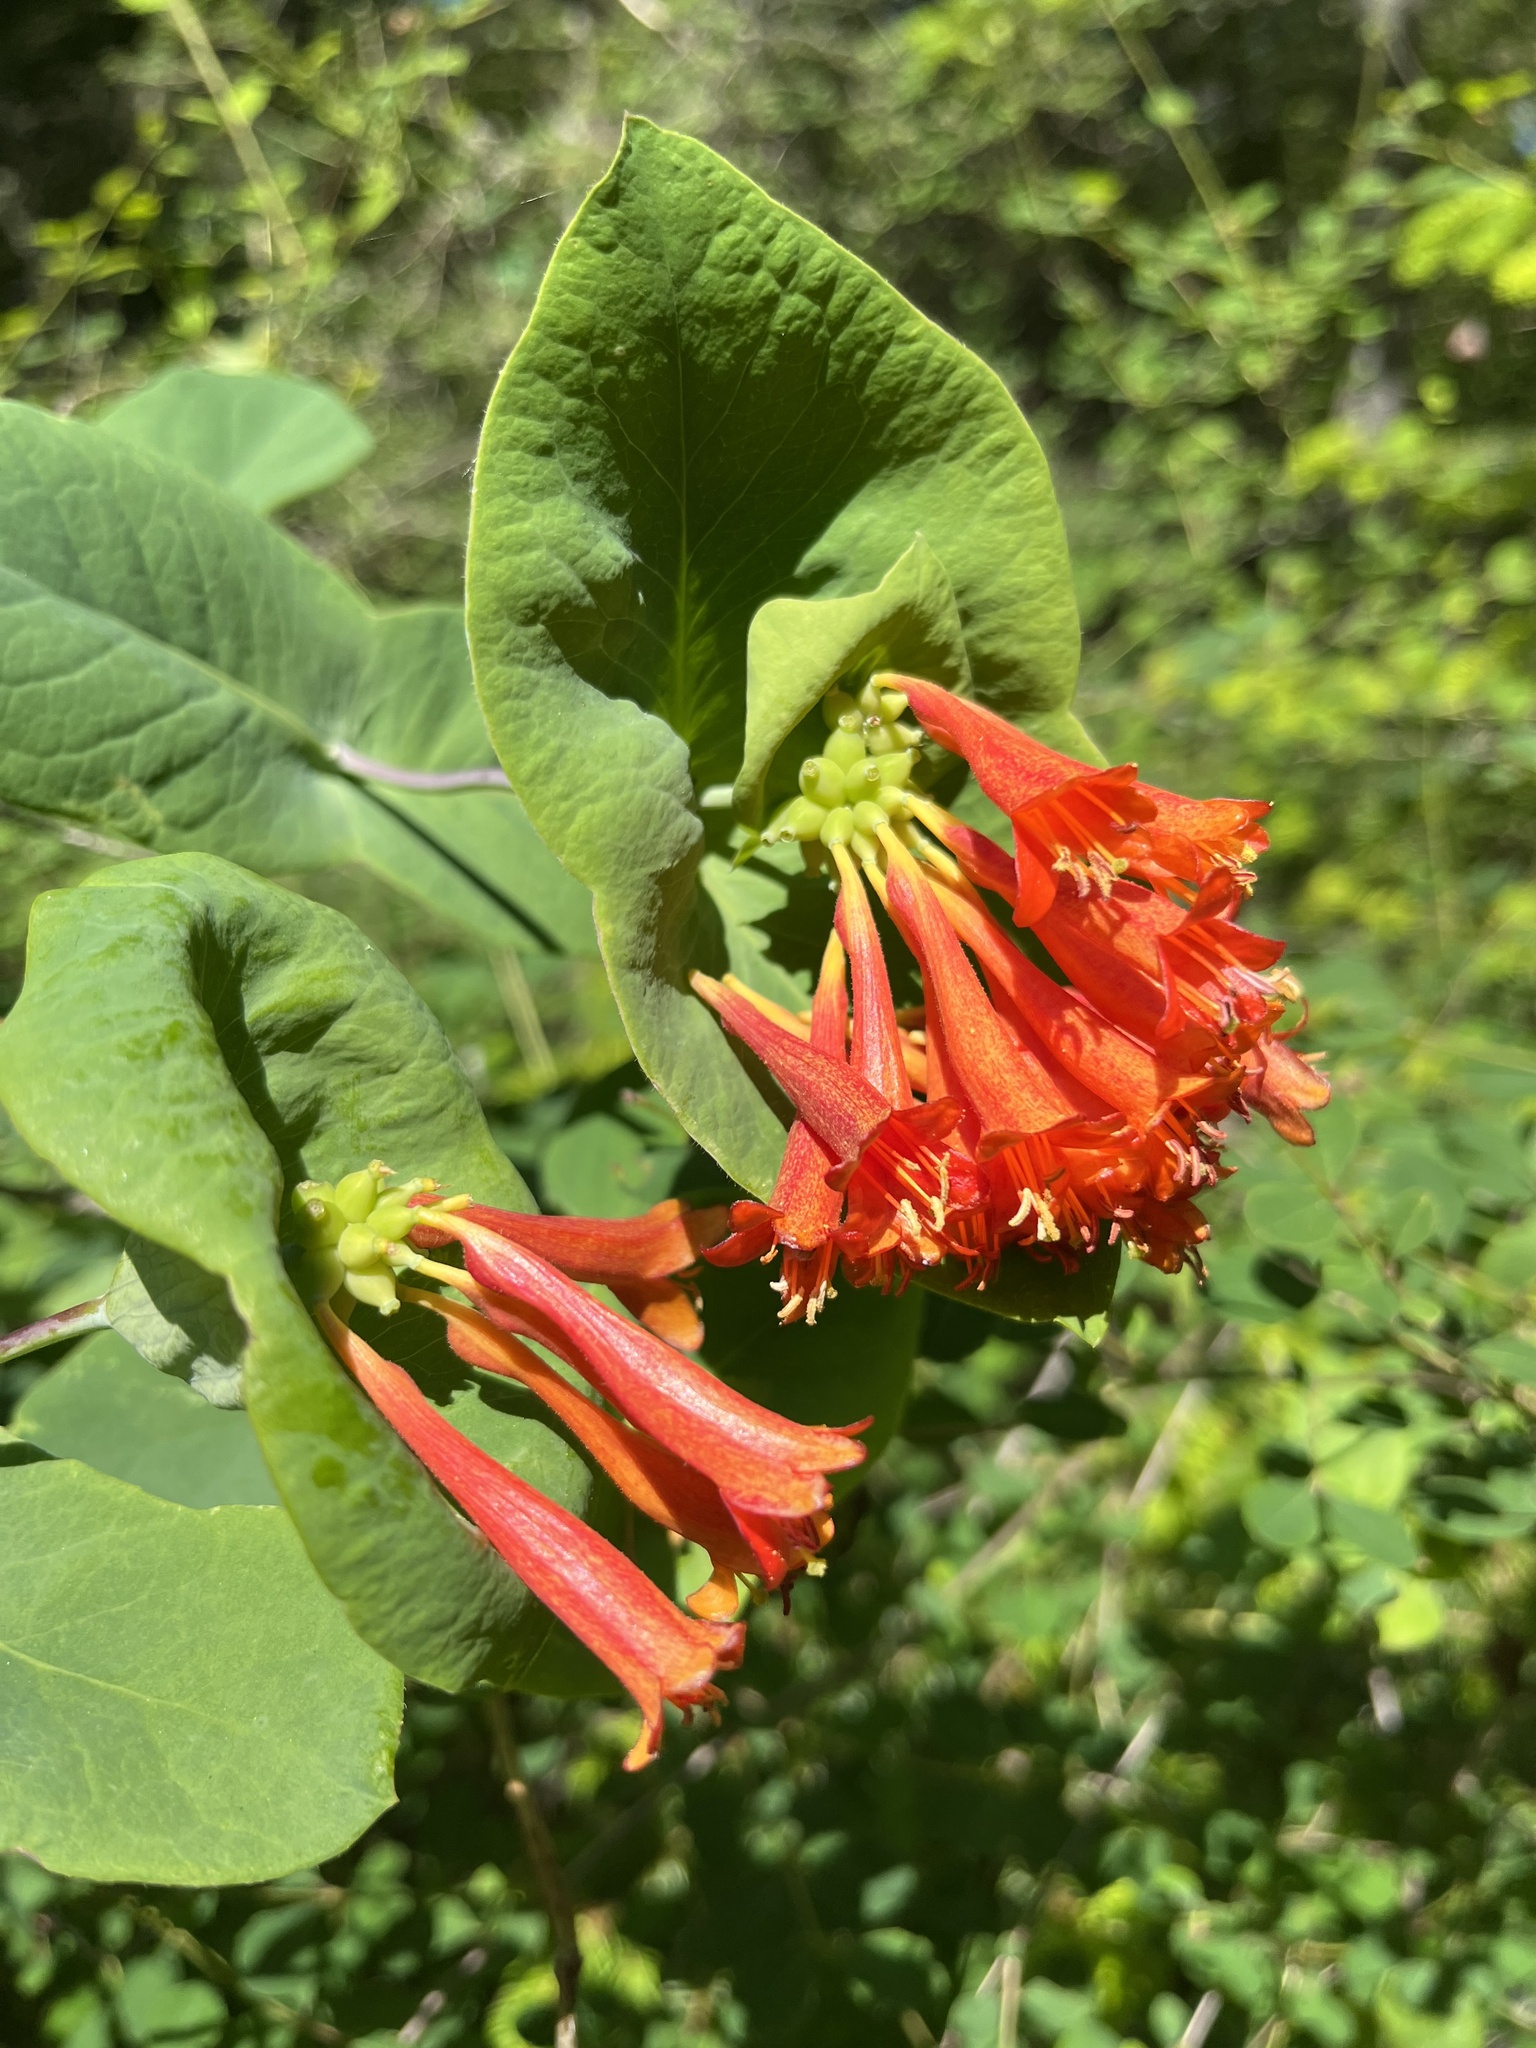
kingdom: Plantae
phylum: Tracheophyta
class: Magnoliopsida
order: Dipsacales
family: Caprifoliaceae
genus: Lonicera
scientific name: Lonicera ciliosa
